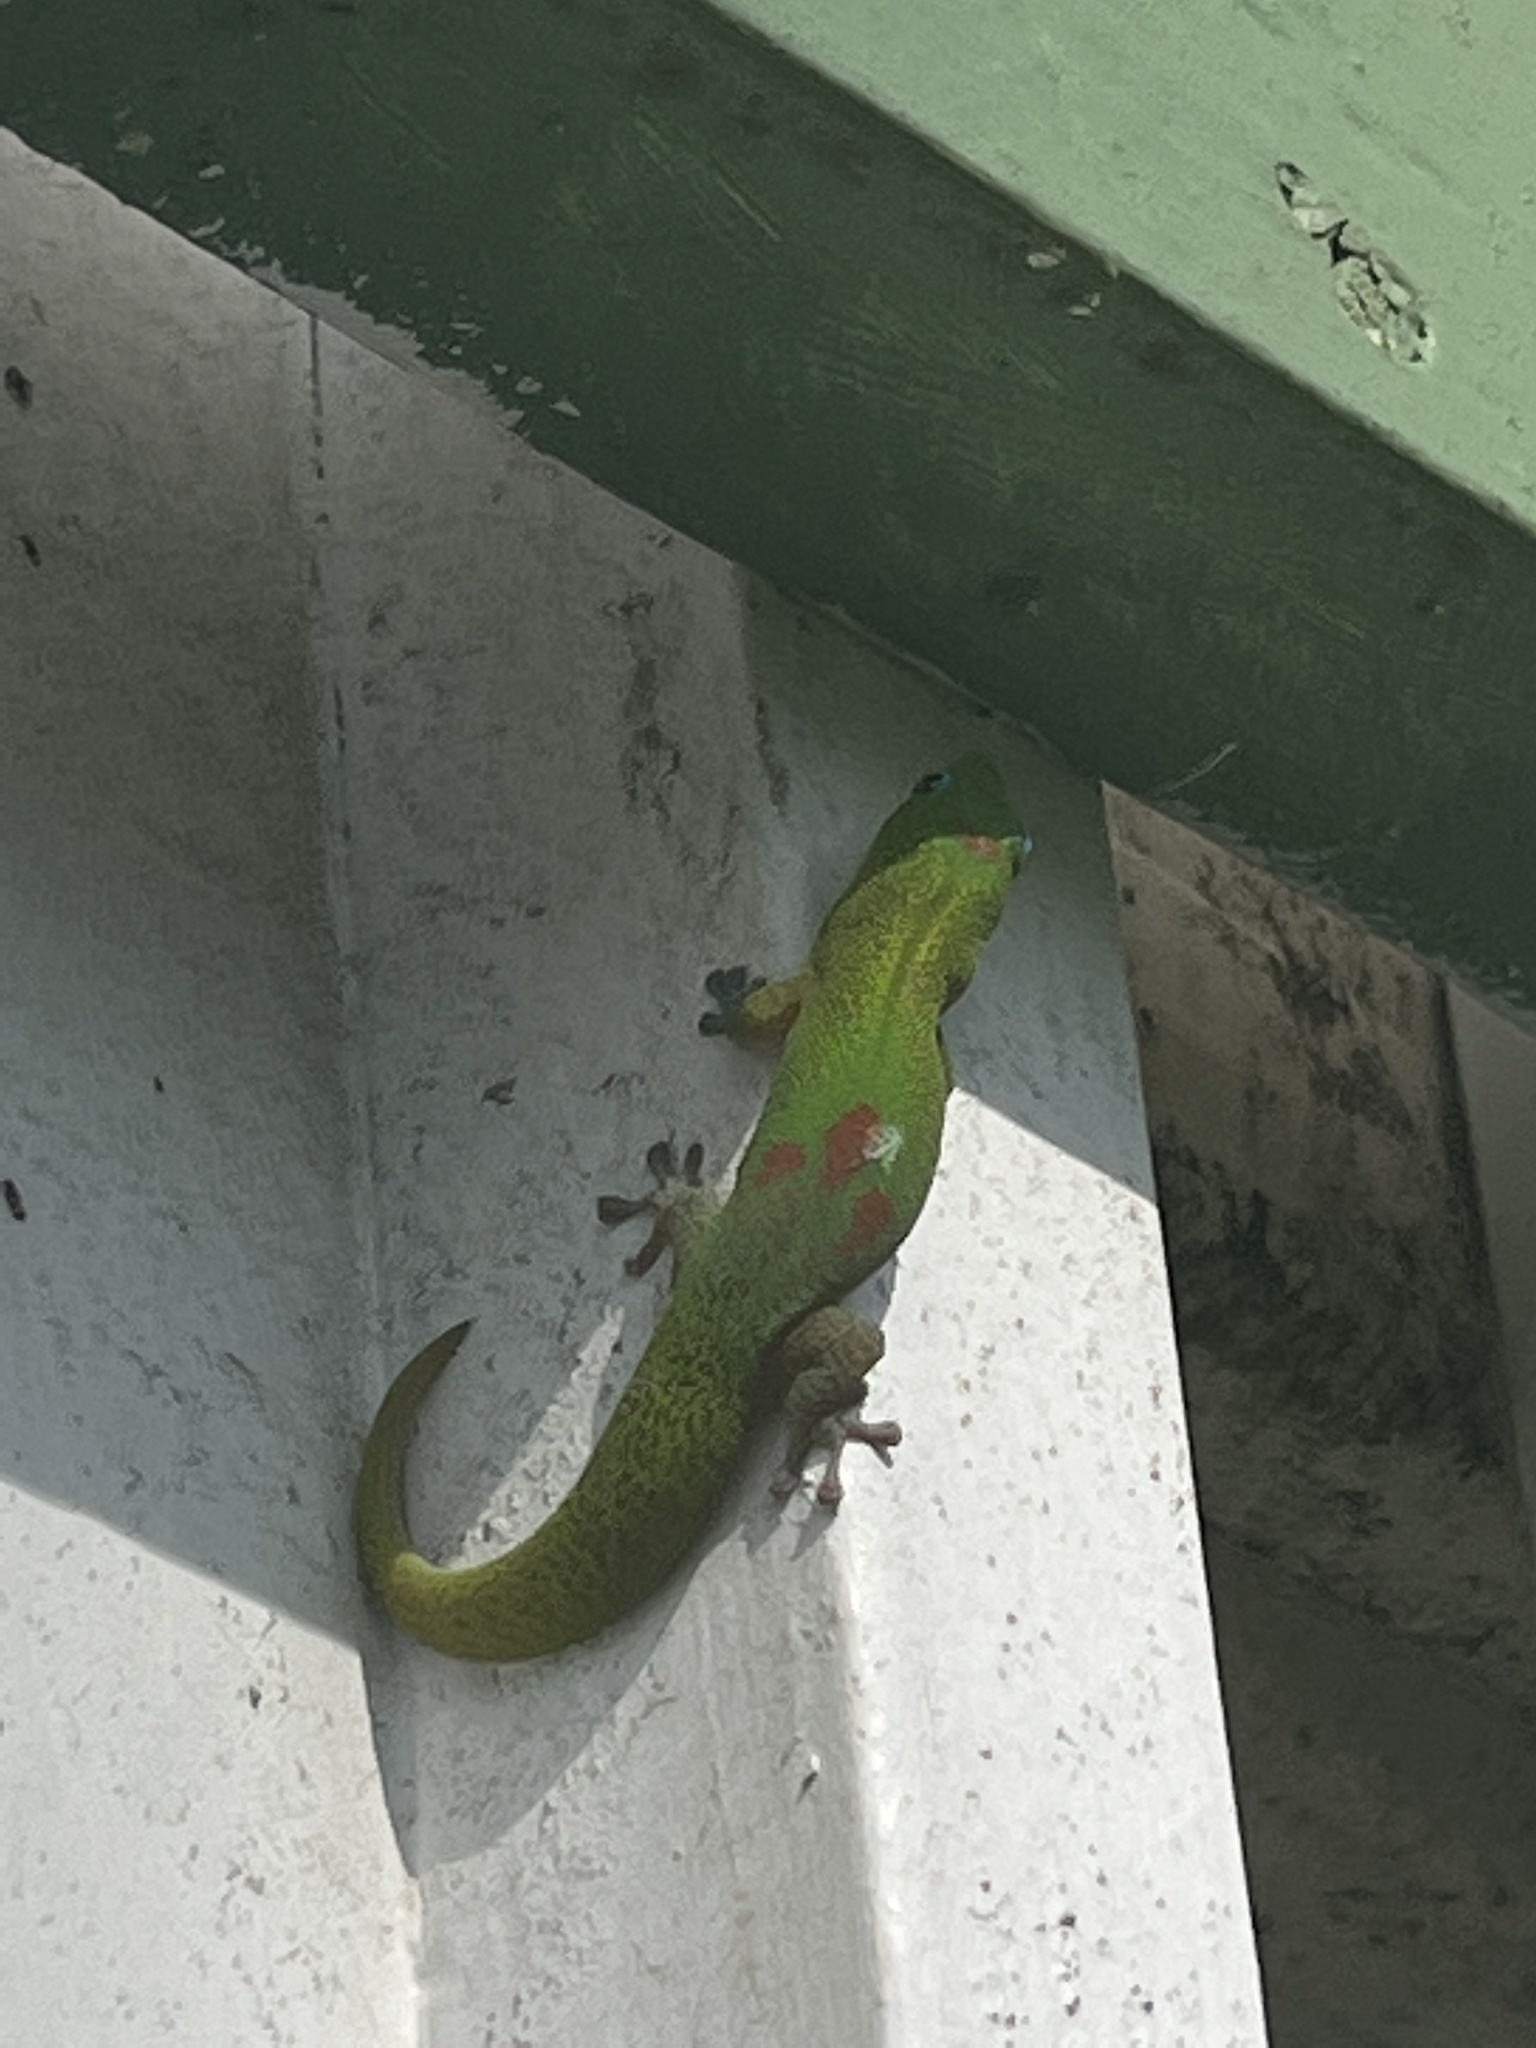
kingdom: Animalia
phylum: Chordata
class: Squamata
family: Gekkonidae
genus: Phelsuma
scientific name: Phelsuma laticauda
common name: Gold dust day gecko
